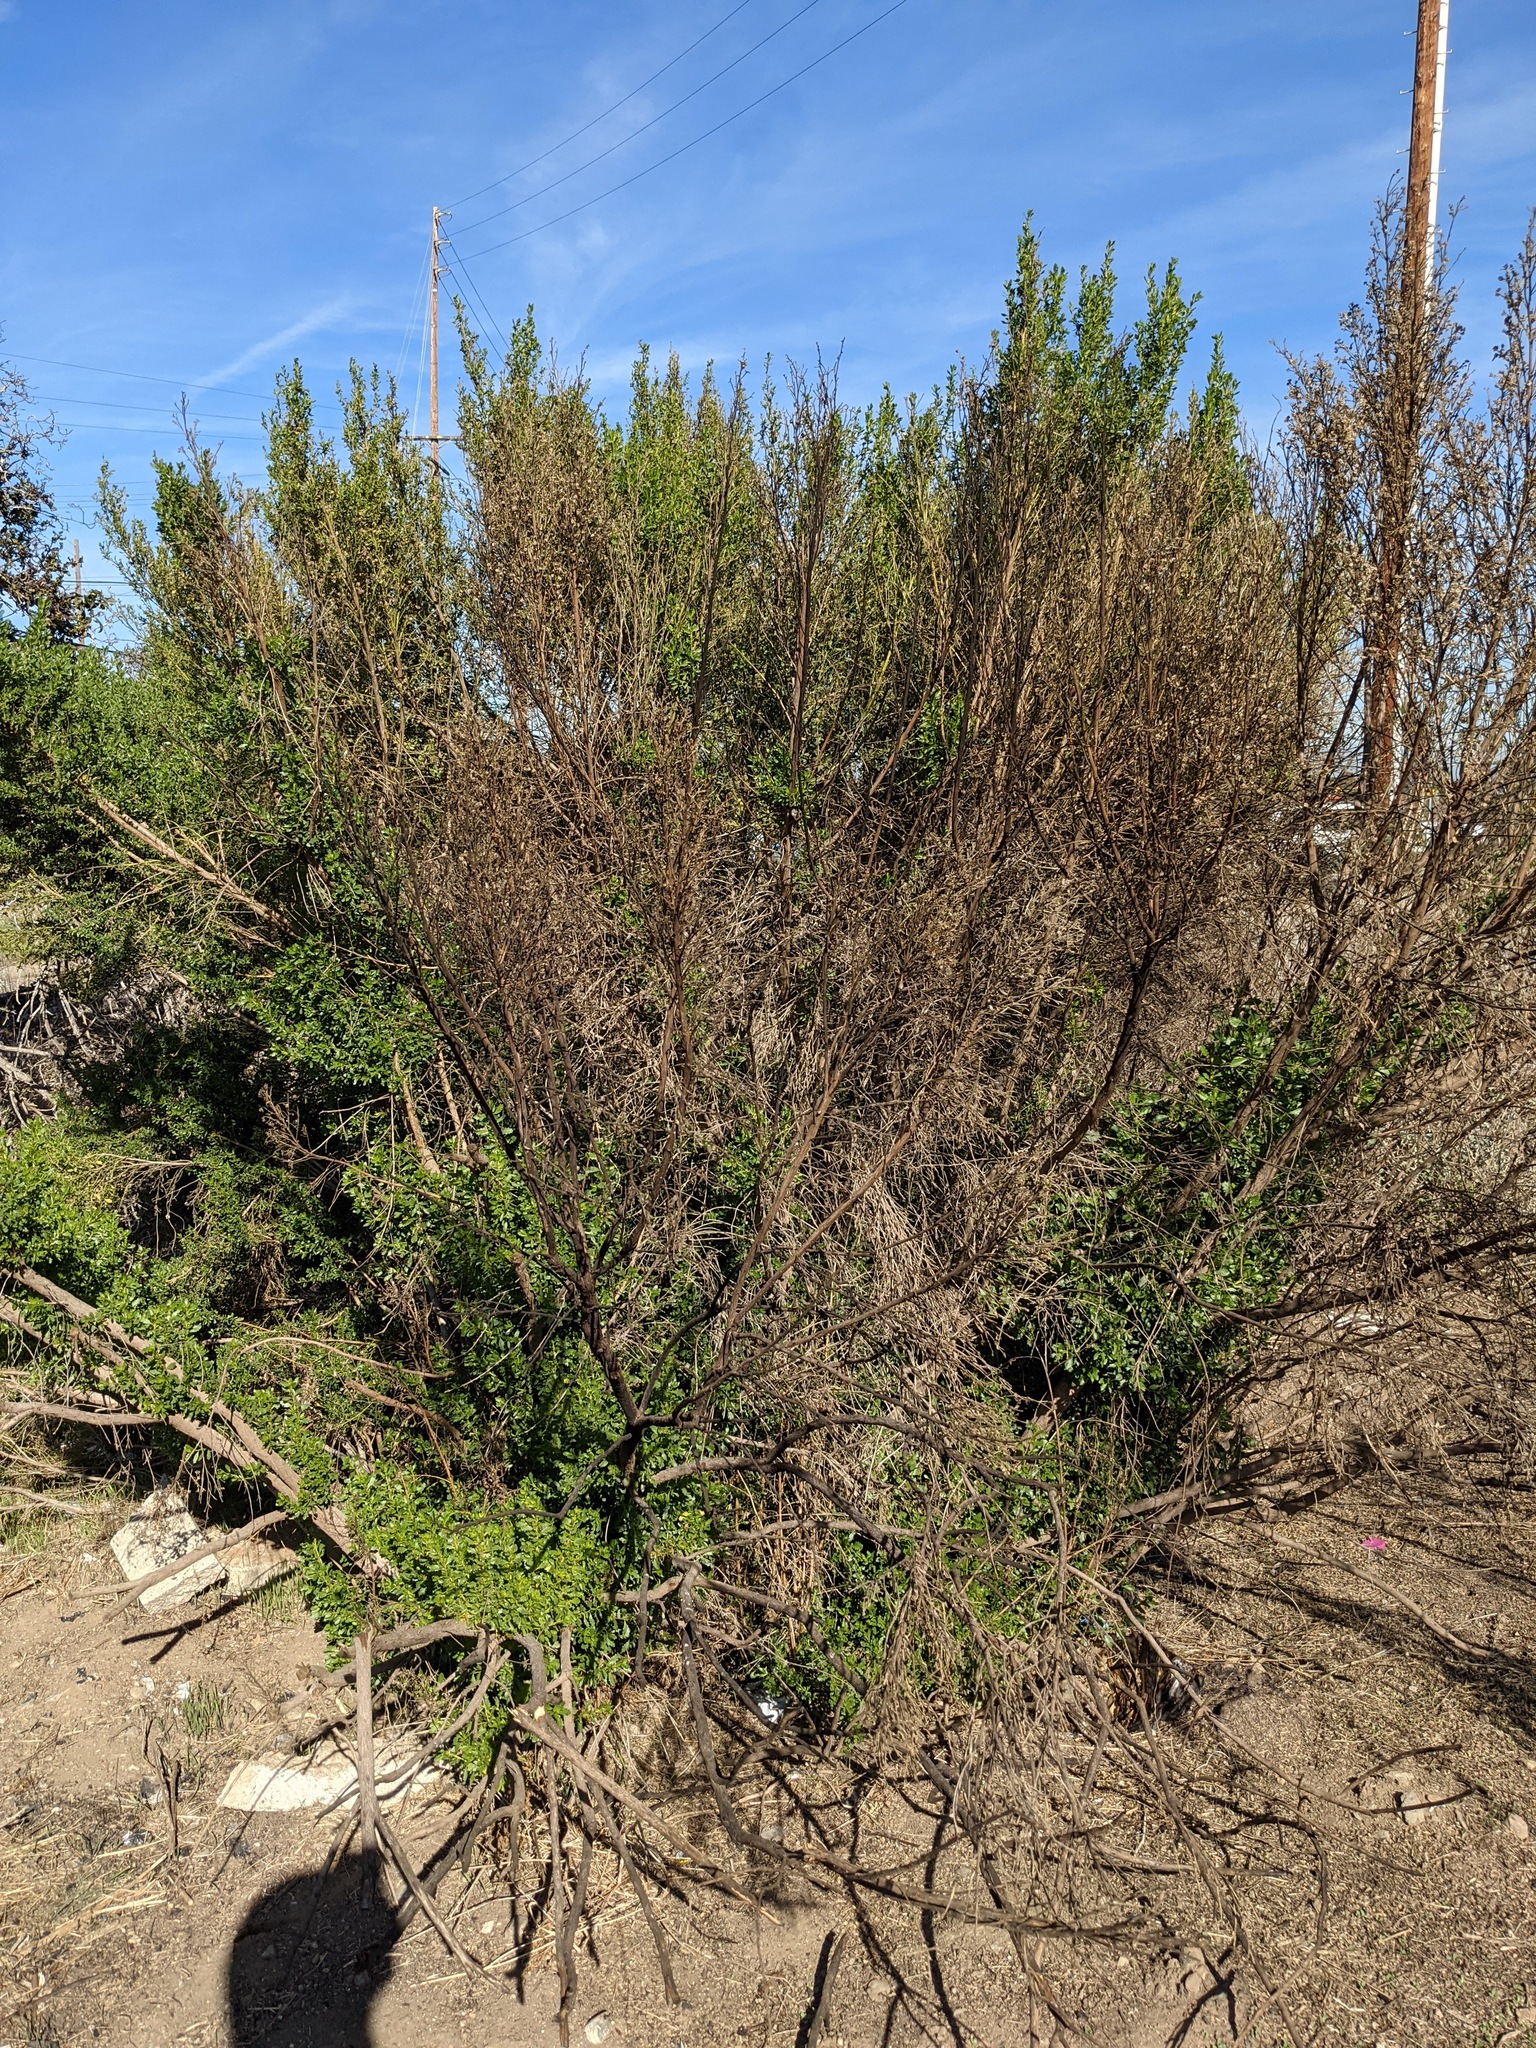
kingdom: Plantae
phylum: Tracheophyta
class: Magnoliopsida
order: Asterales
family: Asteraceae
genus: Baccharis
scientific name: Baccharis pilularis
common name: Coyotebrush
